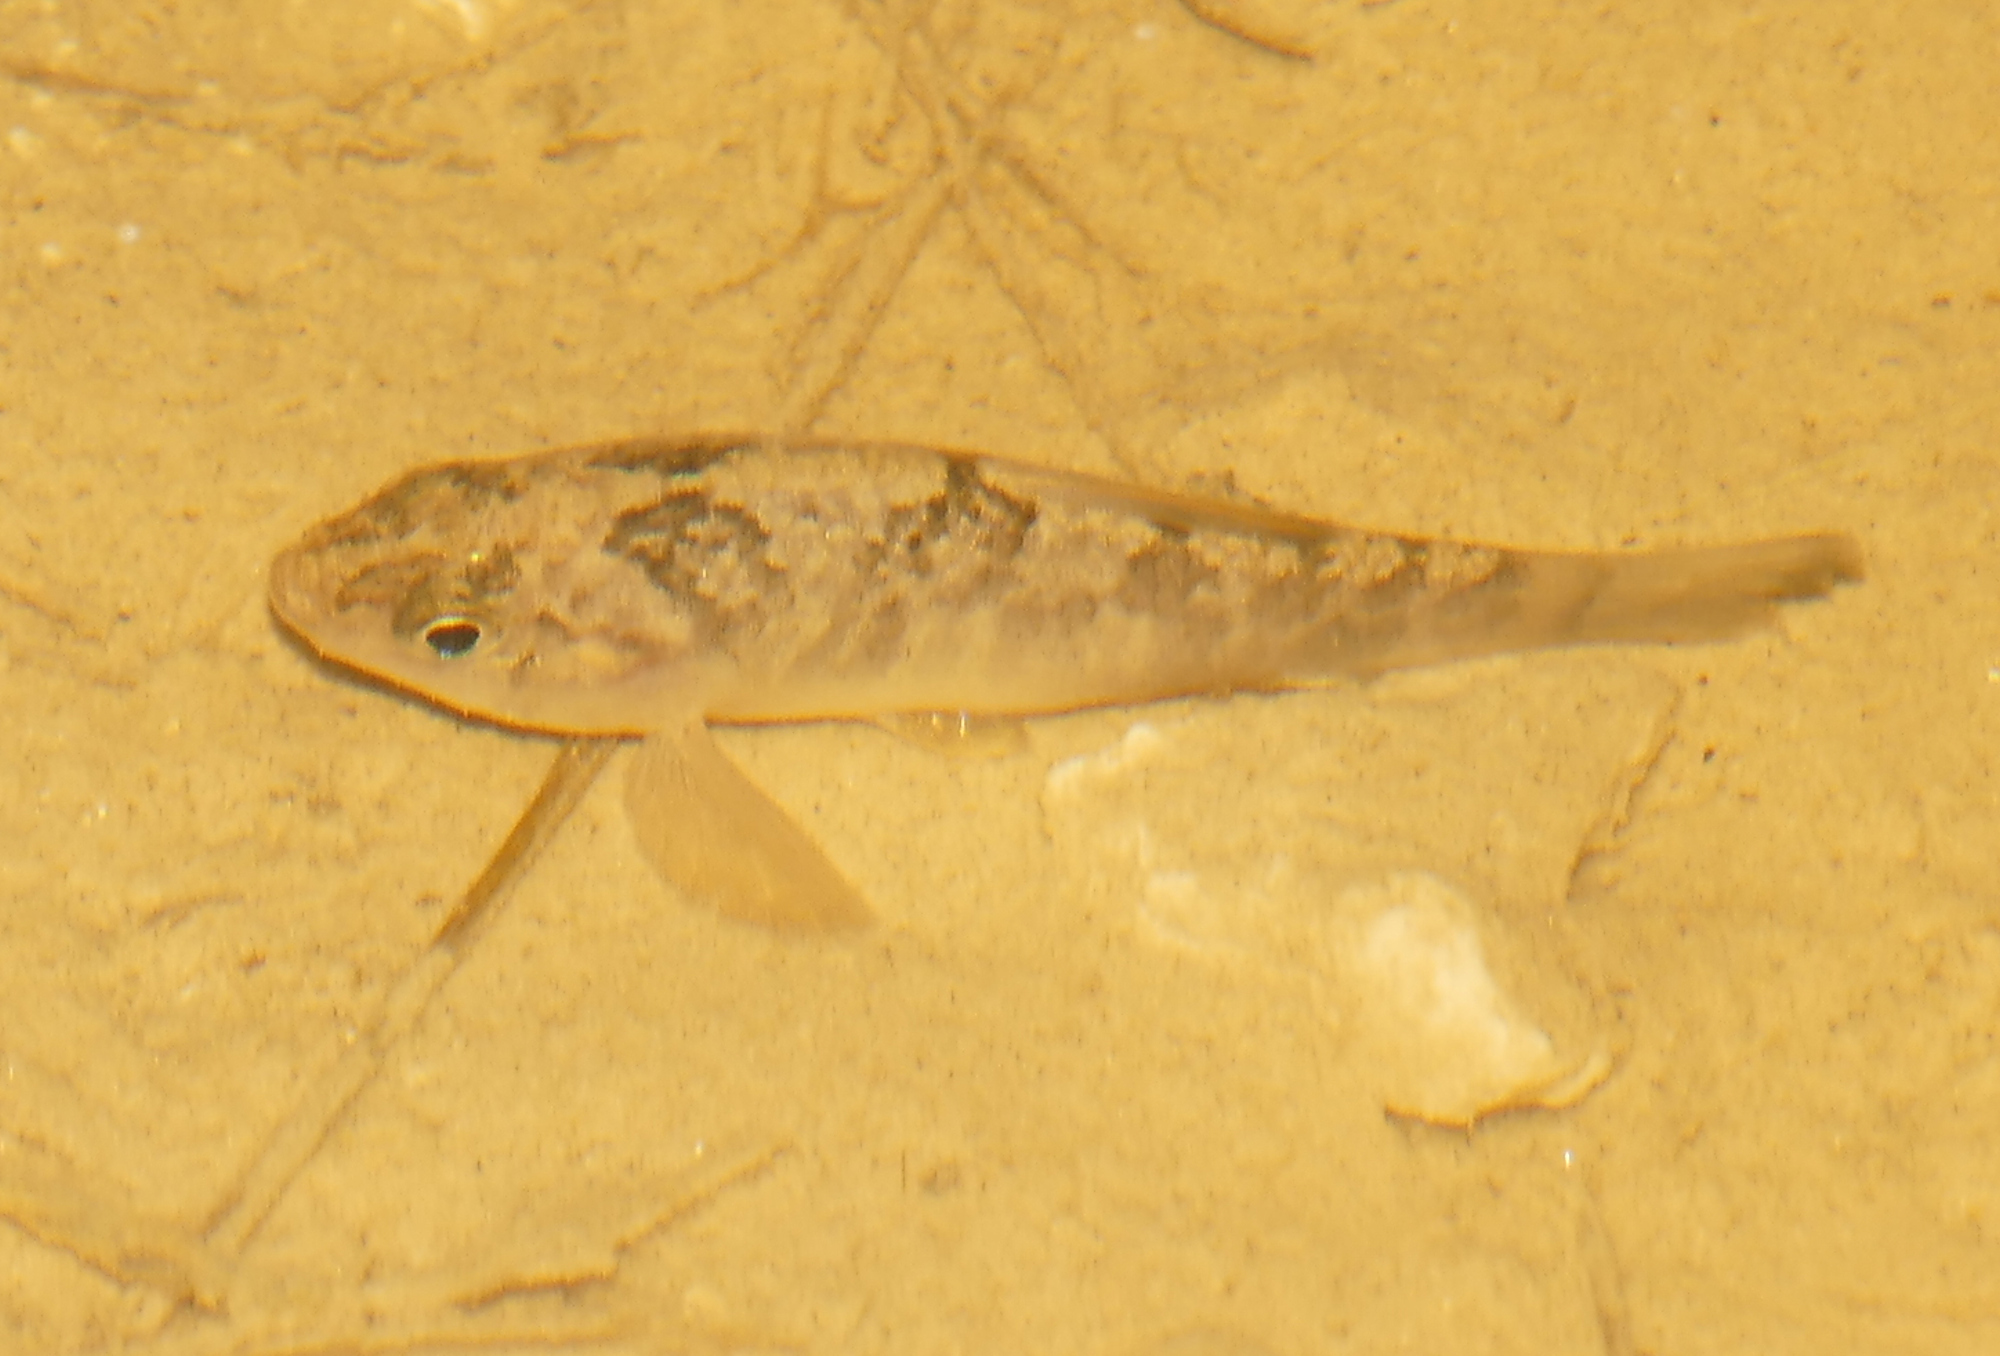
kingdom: Animalia
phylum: Chordata
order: Cyprinodontiformes
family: Cyprinodontidae
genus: Cyprinodon
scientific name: Cyprinodon variegatus
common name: Sheepshead minnow
